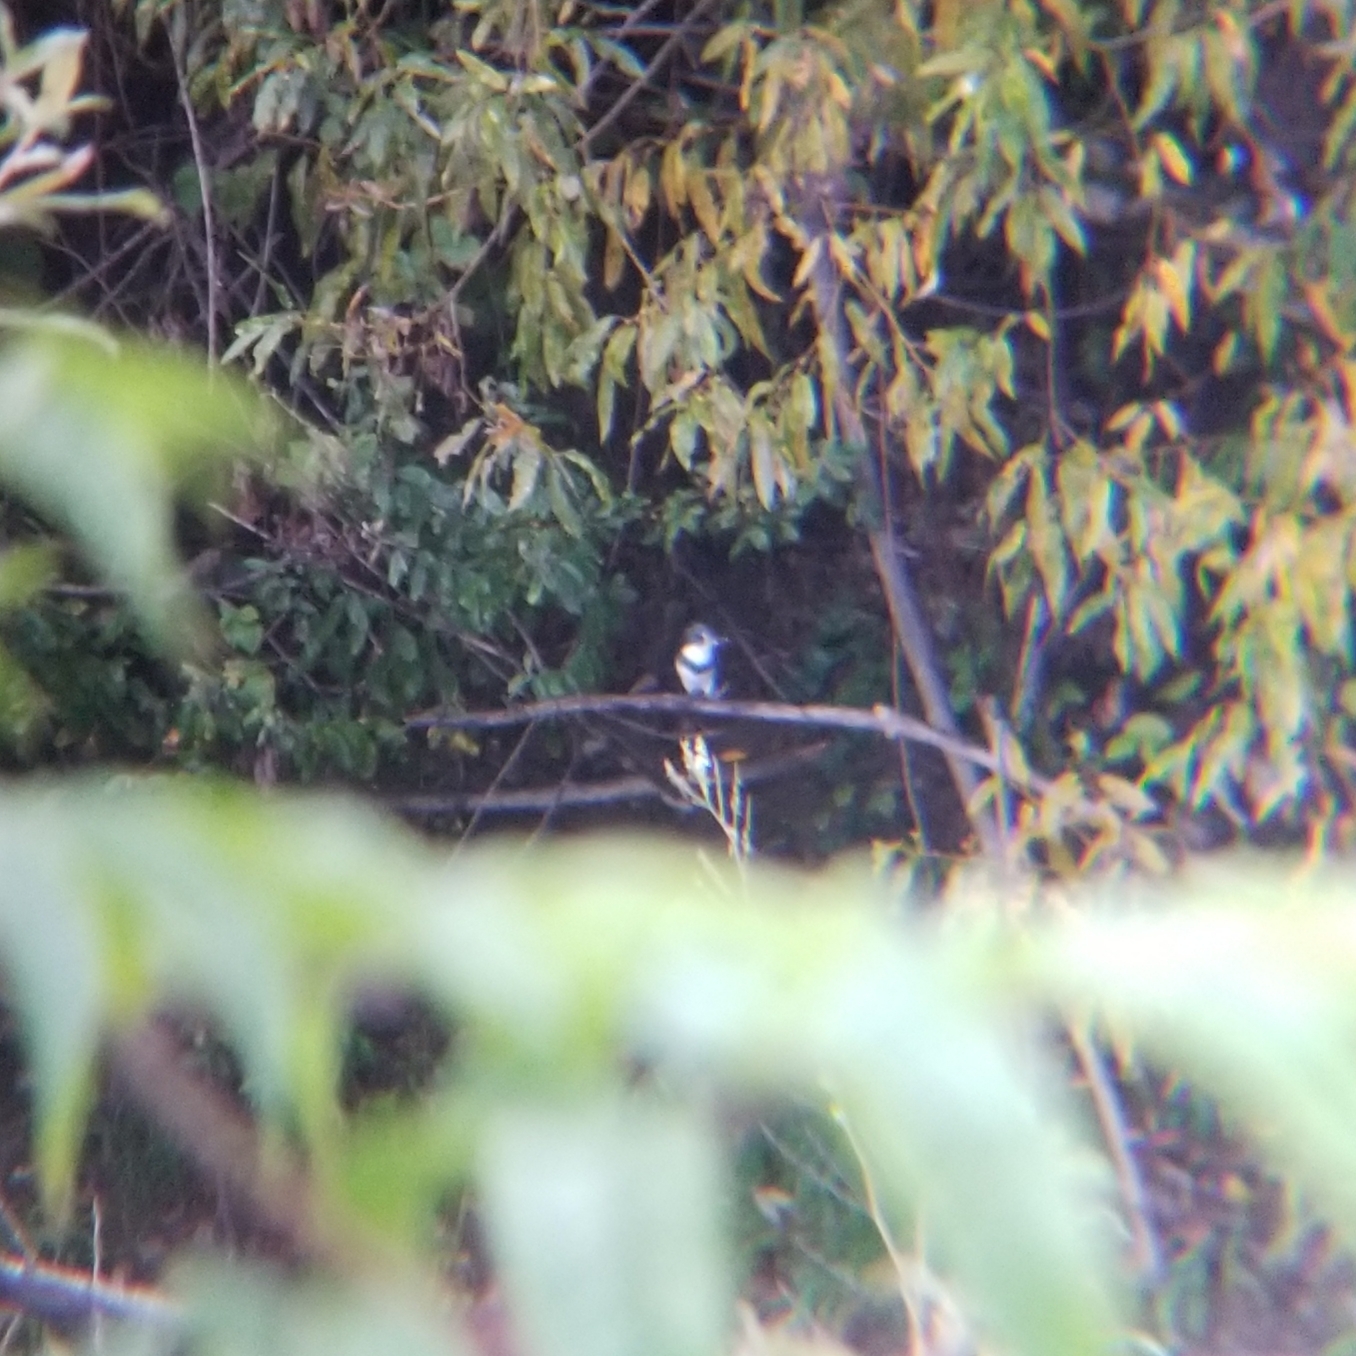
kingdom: Animalia
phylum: Chordata
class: Aves
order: Coraciiformes
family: Alcedinidae
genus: Megaceryle
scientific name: Megaceryle alcyon
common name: Belted kingfisher
